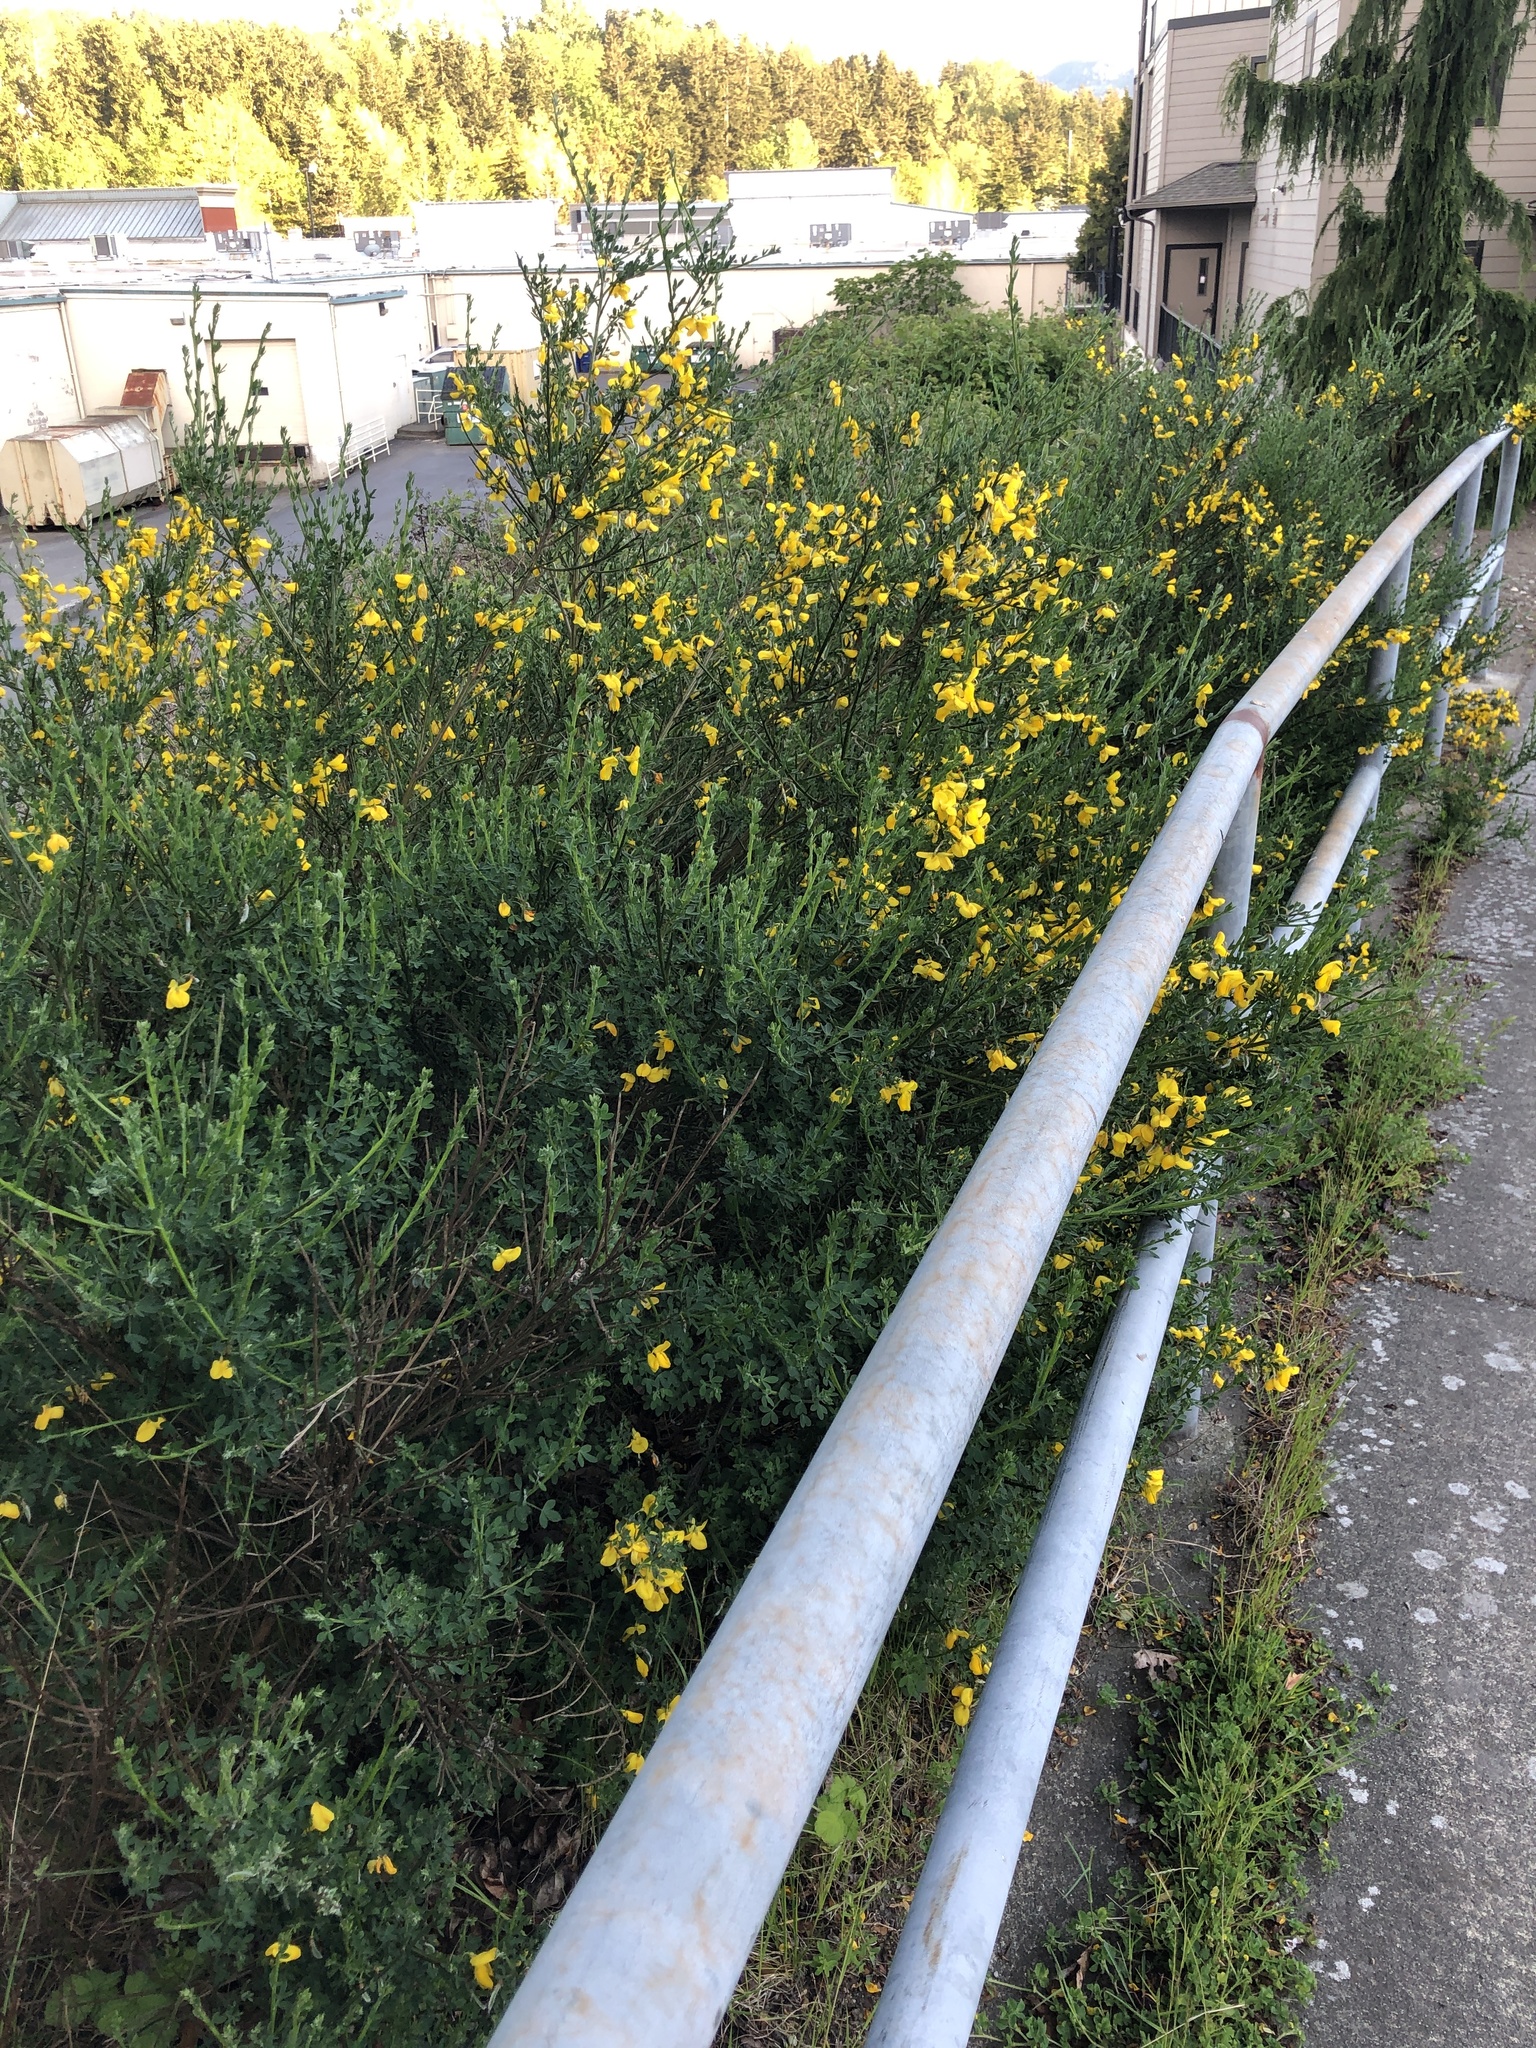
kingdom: Plantae
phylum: Tracheophyta
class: Magnoliopsida
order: Fabales
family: Fabaceae
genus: Cytisus
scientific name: Cytisus scoparius
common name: Scotch broom
